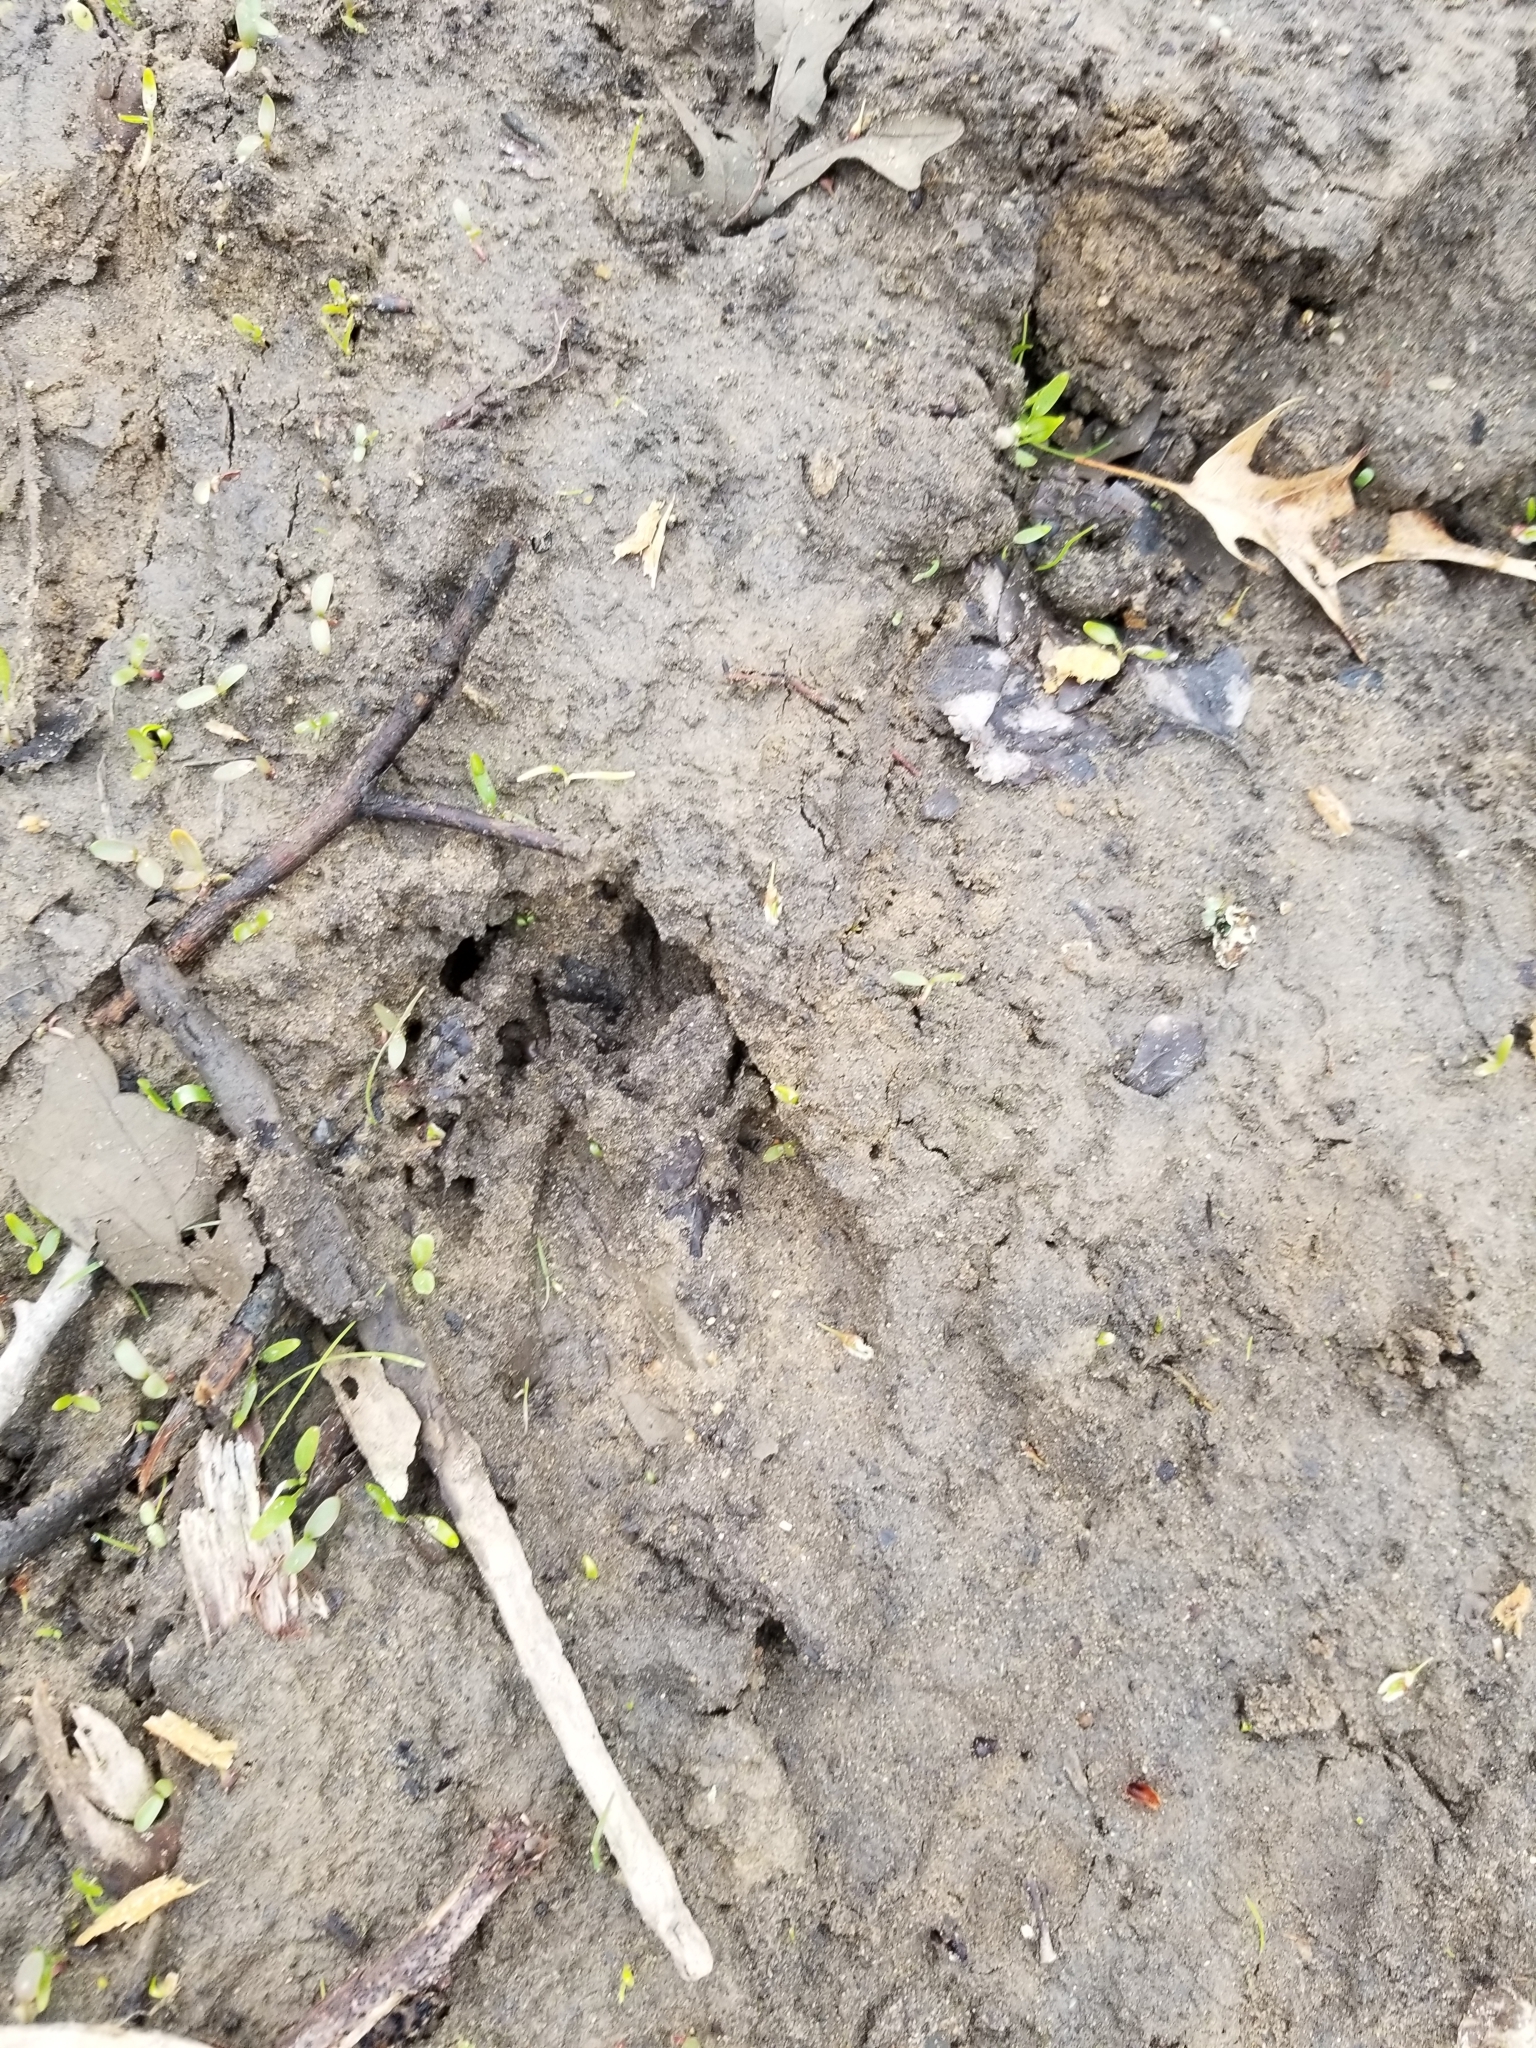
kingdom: Animalia
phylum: Chordata
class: Mammalia
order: Artiodactyla
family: Cervidae
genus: Odocoileus
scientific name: Odocoileus virginianus
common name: White-tailed deer
